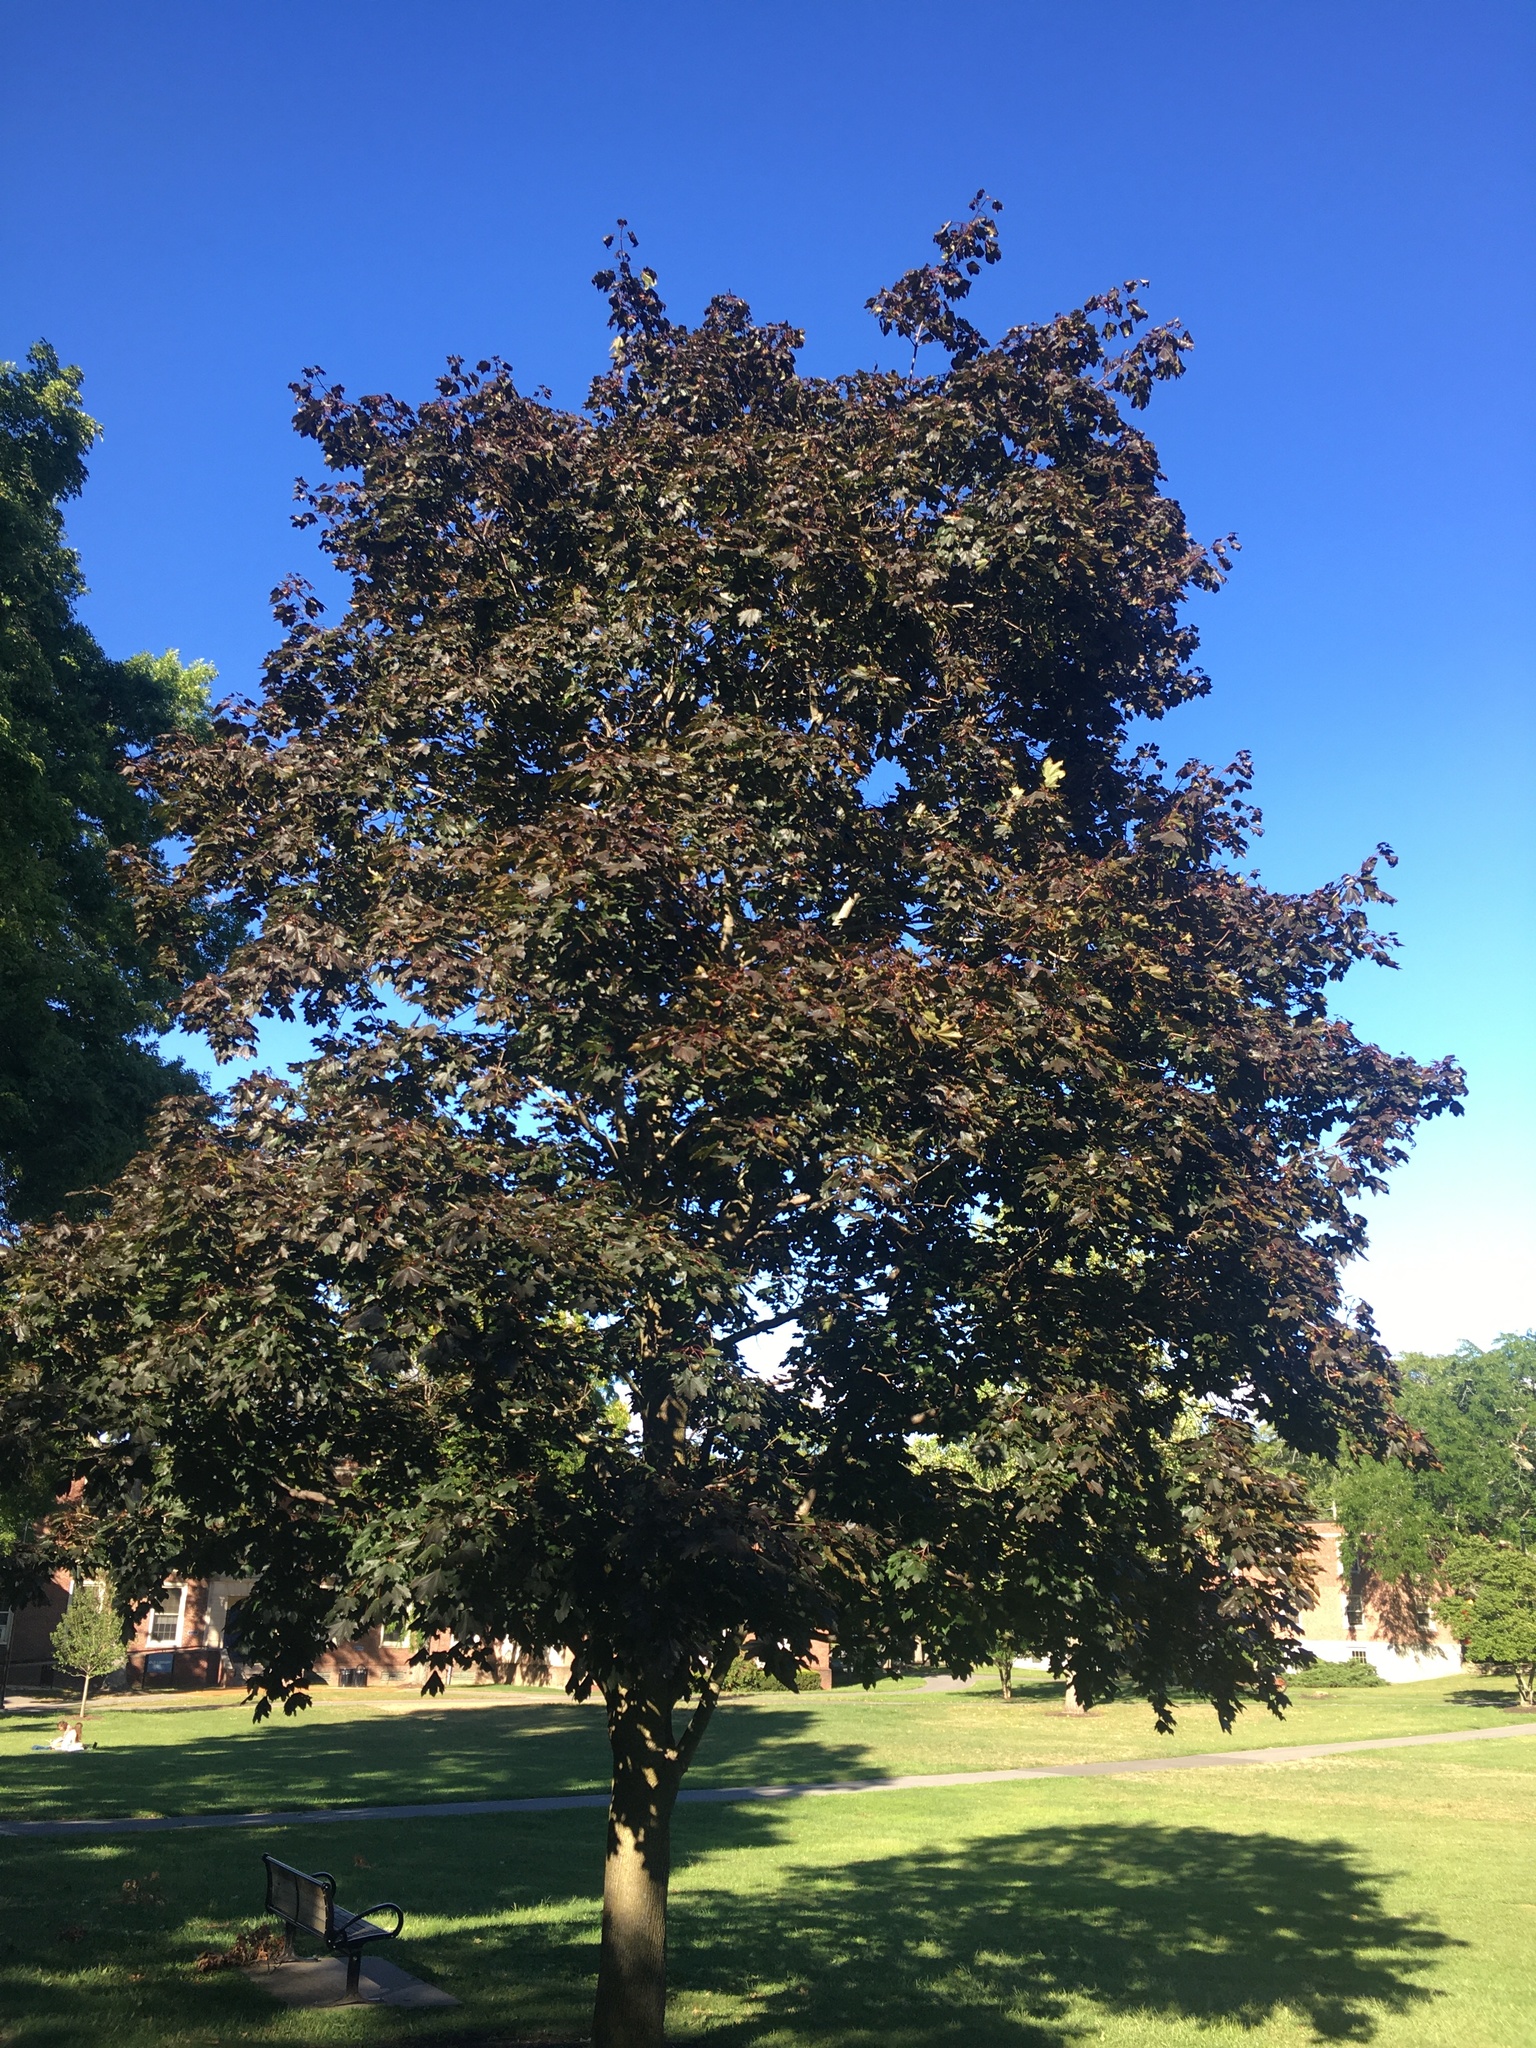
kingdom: Plantae
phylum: Tracheophyta
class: Magnoliopsida
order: Sapindales
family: Sapindaceae
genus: Acer
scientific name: Acer platanoides
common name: Norway maple
